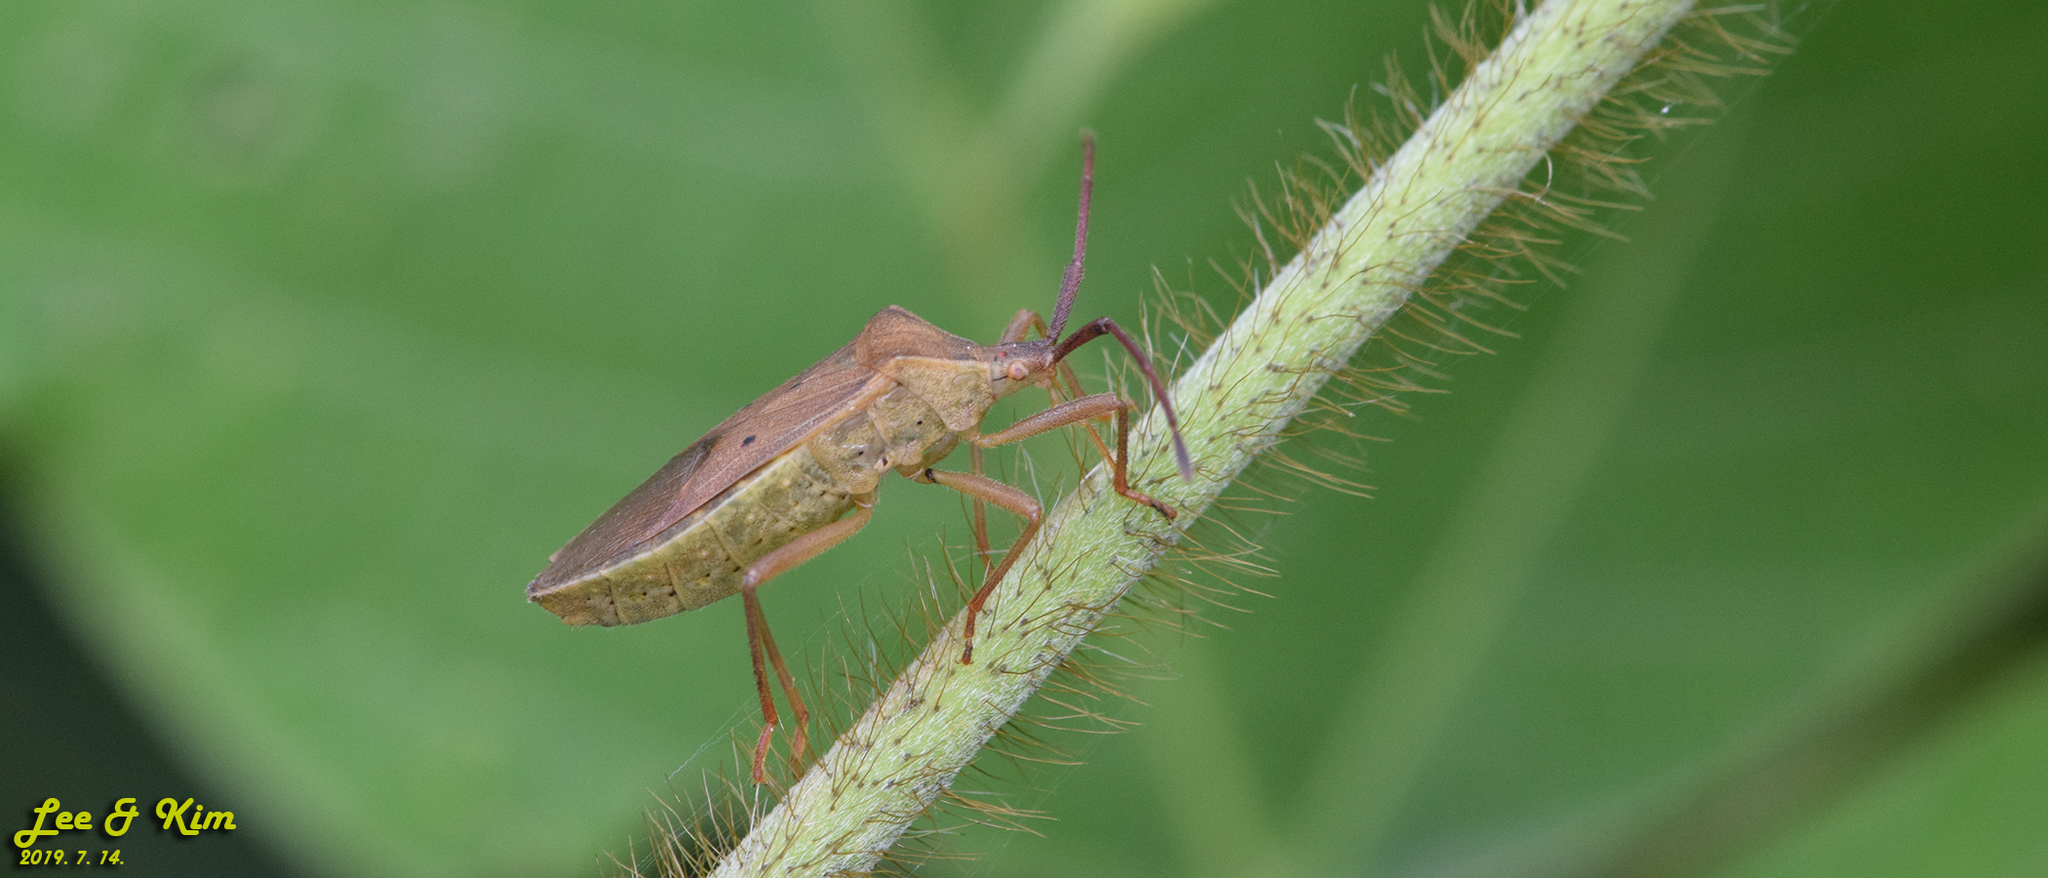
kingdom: Animalia
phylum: Arthropoda
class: Insecta
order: Hemiptera
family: Coreidae
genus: Homoeocerus
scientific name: Homoeocerus unipunctatus
